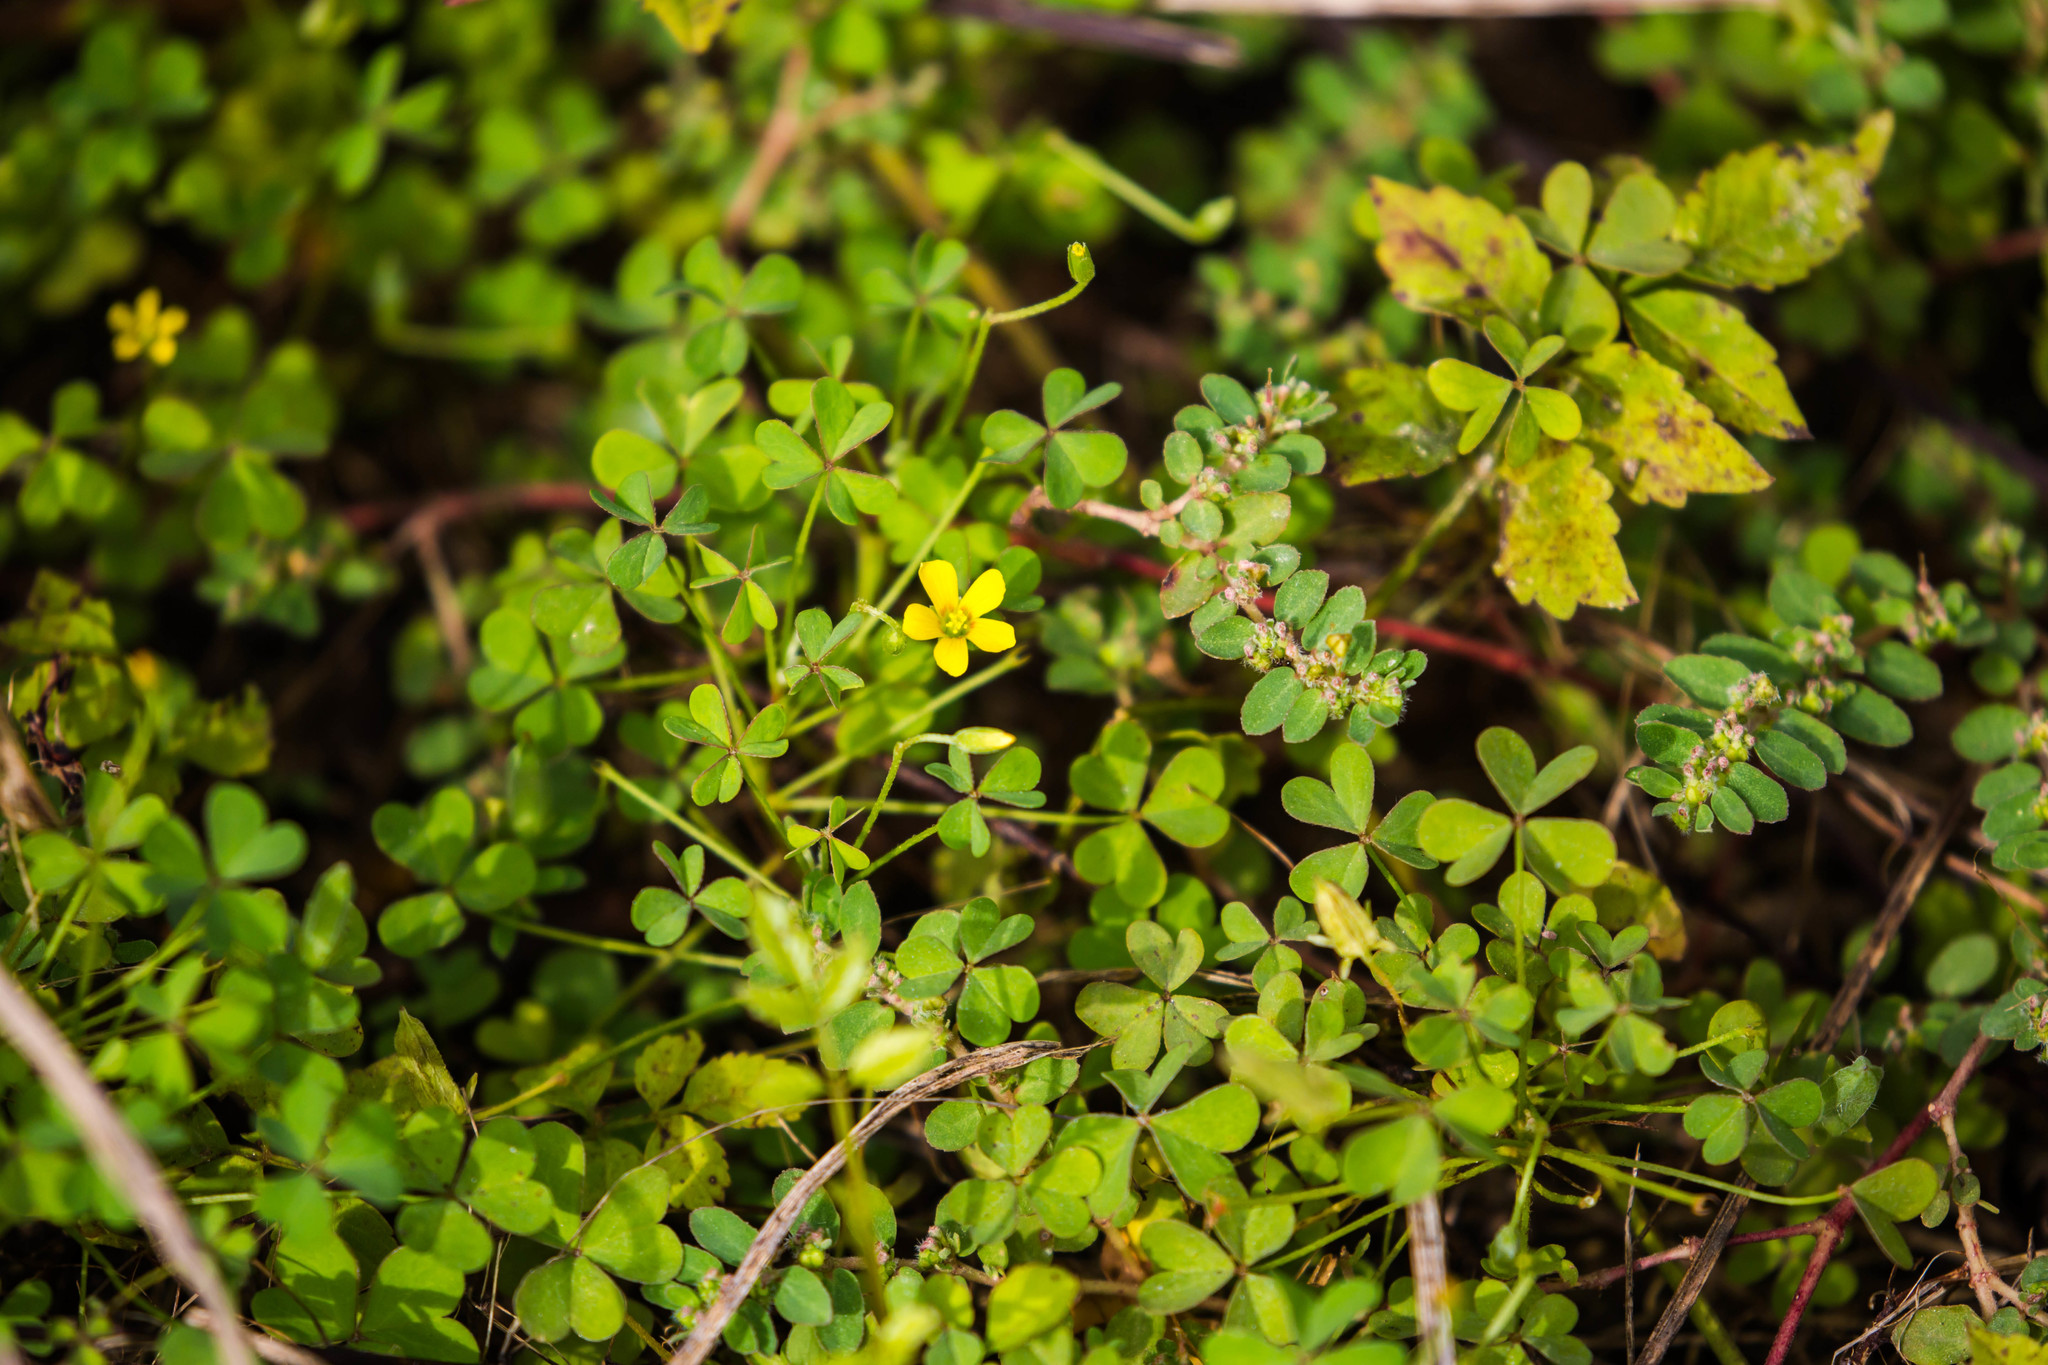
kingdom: Plantae
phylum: Tracheophyta
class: Magnoliopsida
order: Oxalidales
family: Oxalidaceae
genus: Oxalis
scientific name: Oxalis corniculata
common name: Procumbent yellow-sorrel
